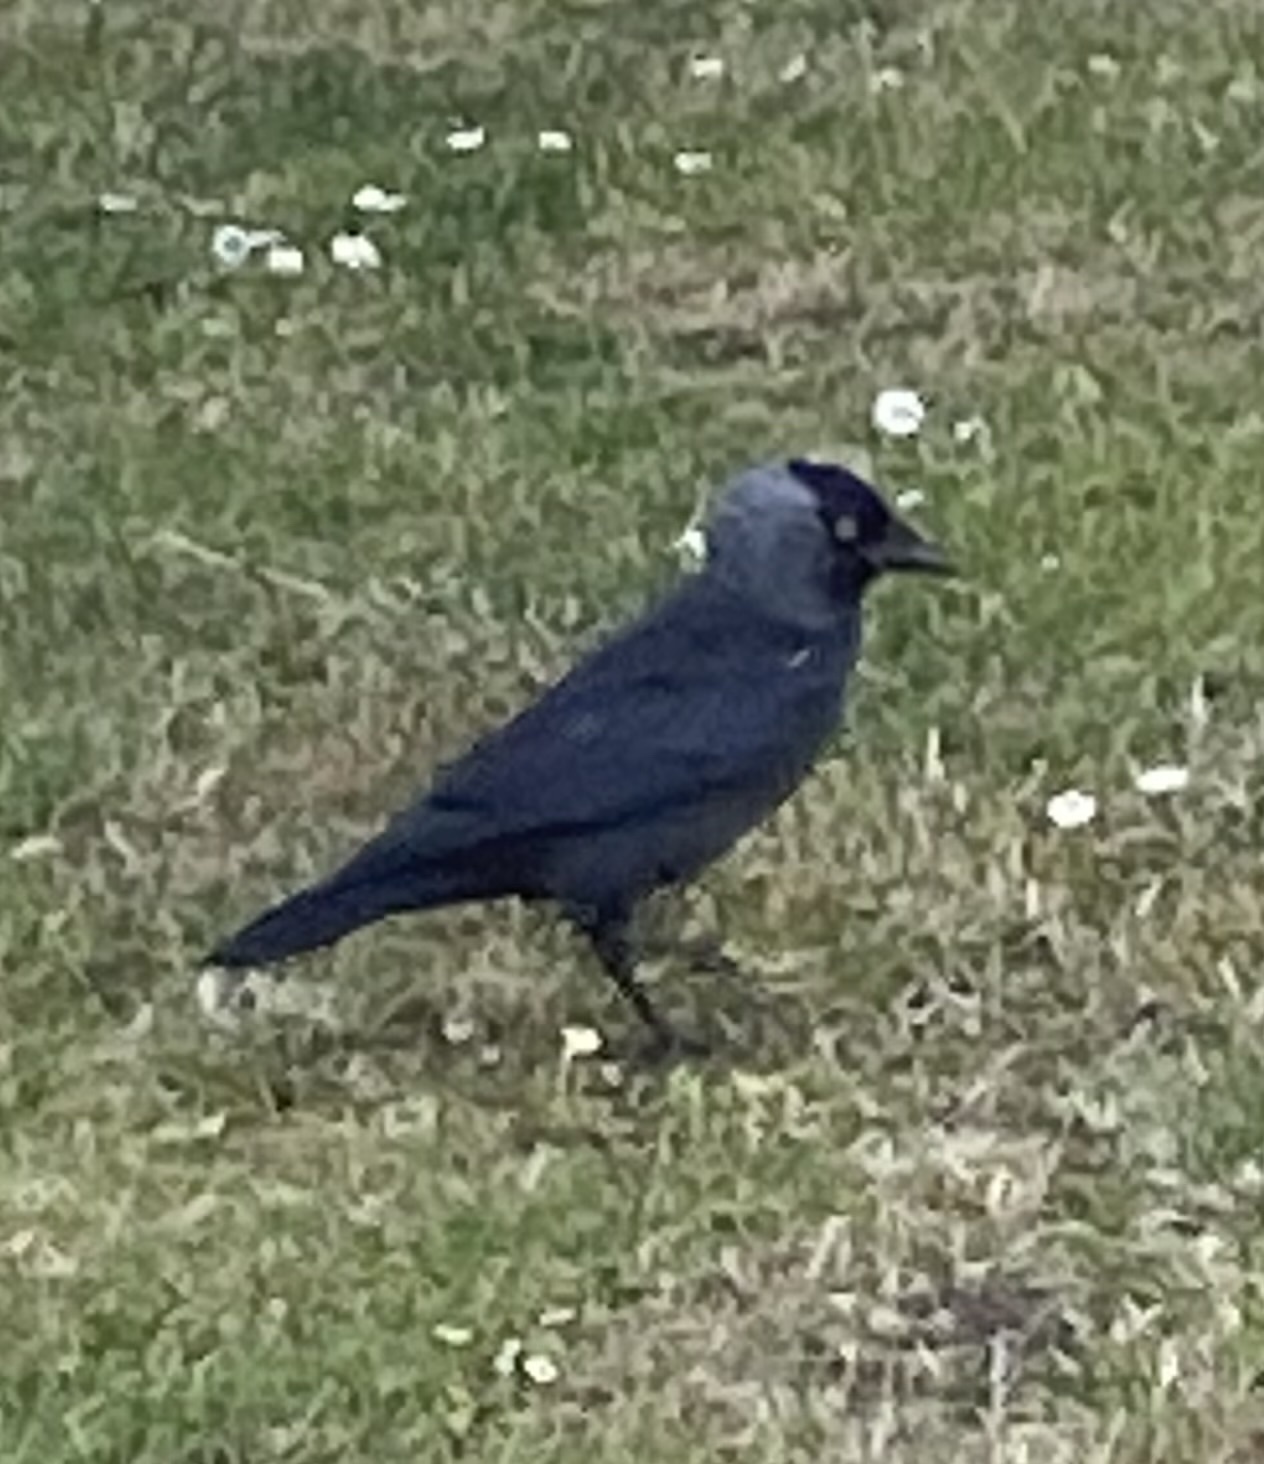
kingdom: Animalia
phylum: Chordata
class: Aves
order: Passeriformes
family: Corvidae
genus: Coloeus
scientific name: Coloeus monedula
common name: Western jackdaw
